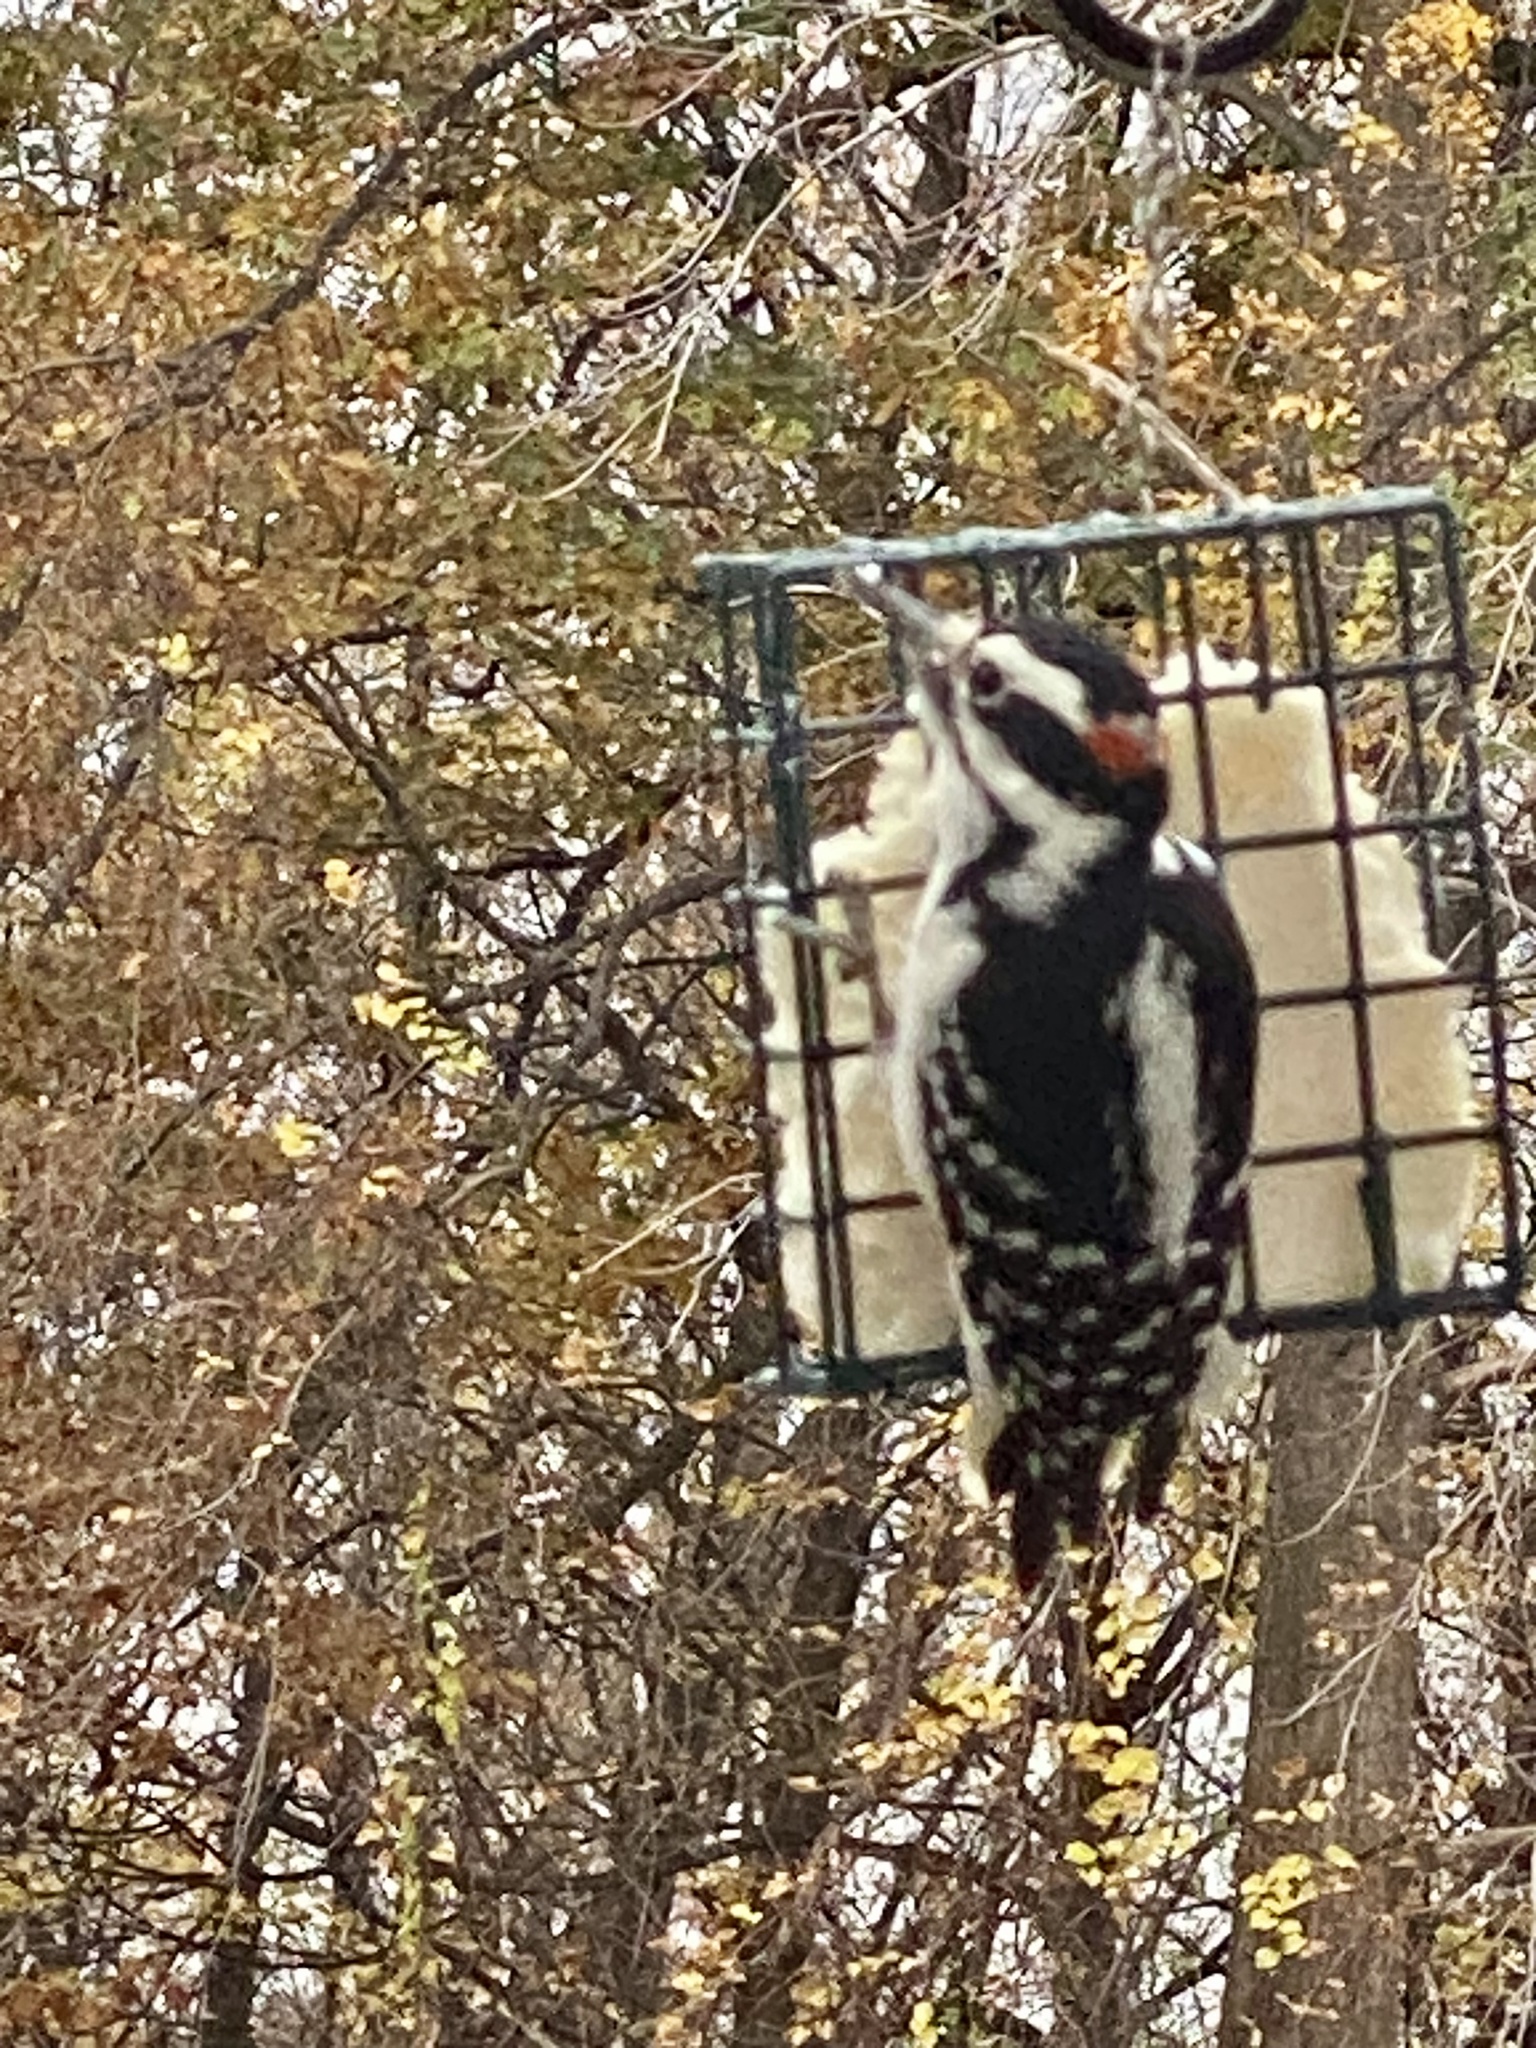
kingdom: Animalia
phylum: Chordata
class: Aves
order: Piciformes
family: Picidae
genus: Dryobates
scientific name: Dryobates pubescens
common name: Downy woodpecker
